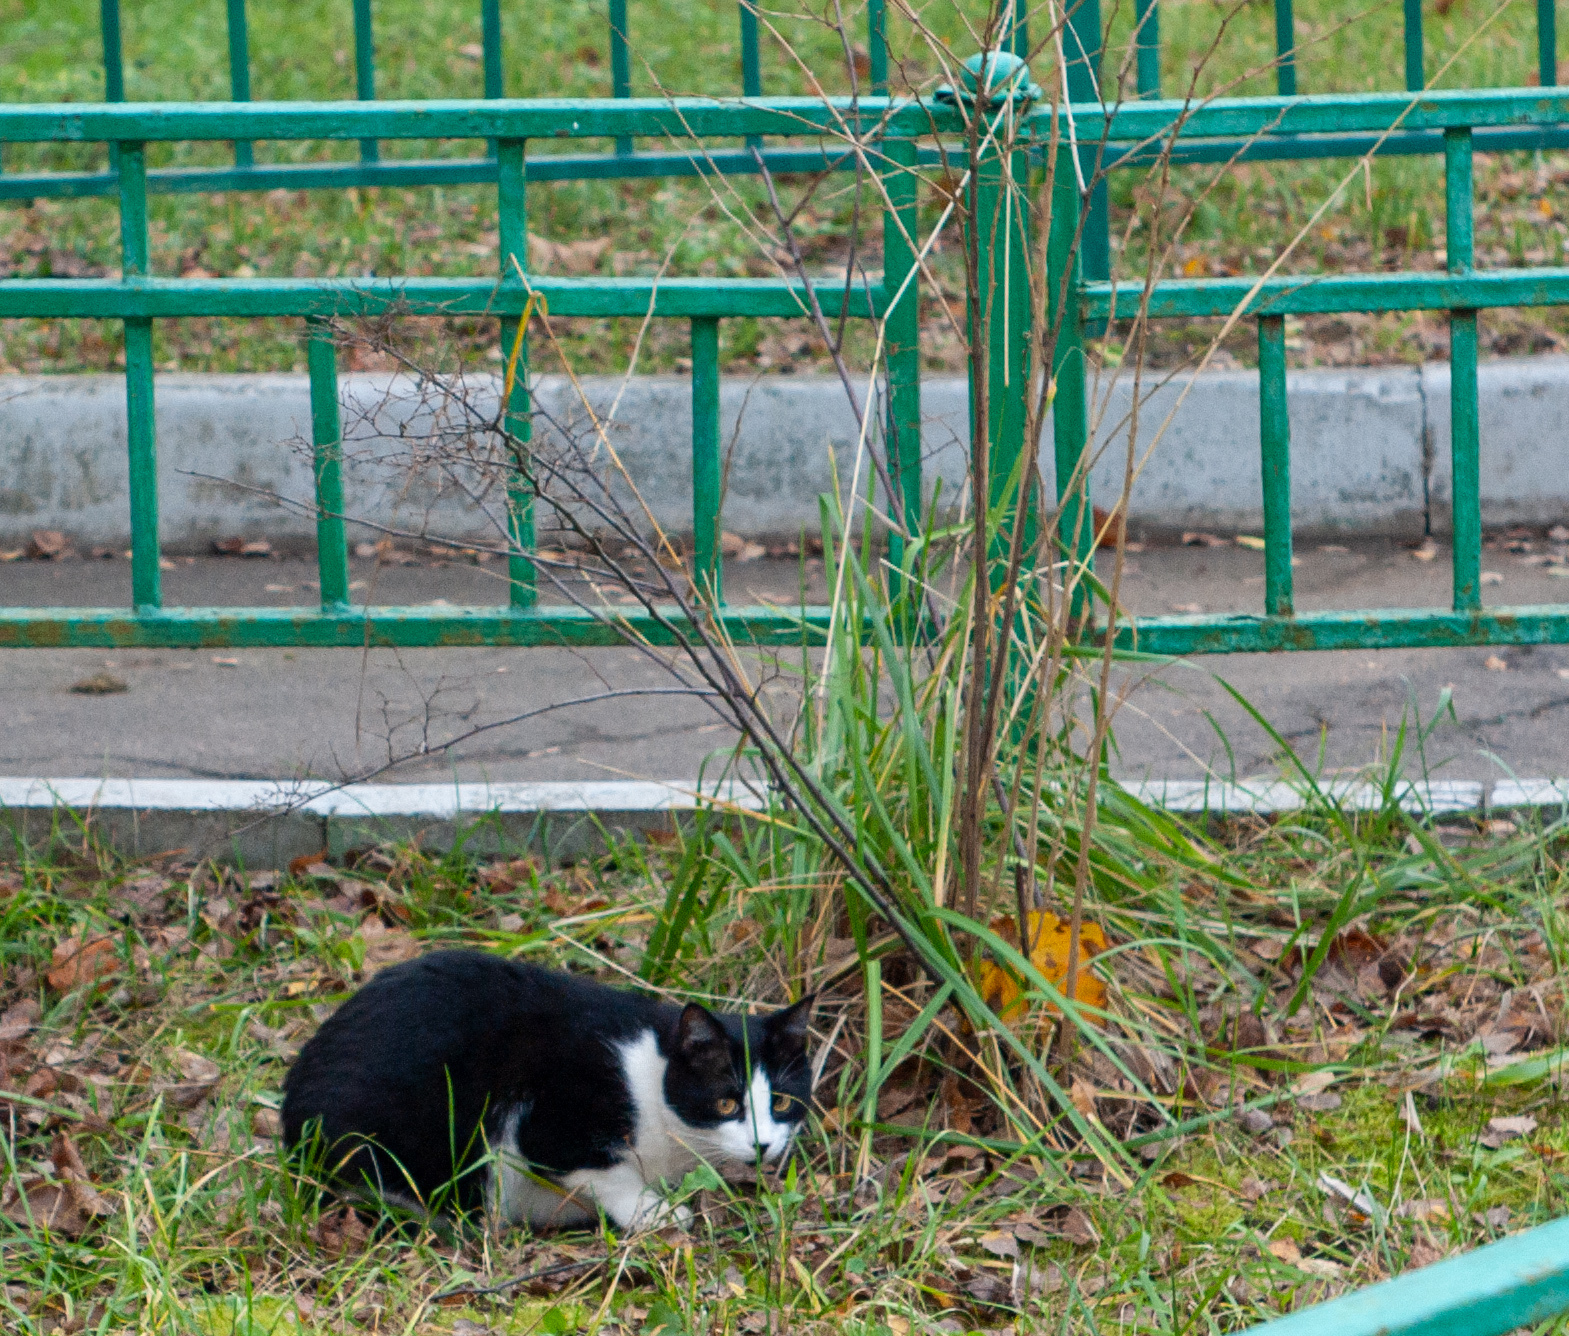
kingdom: Animalia
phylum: Chordata
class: Mammalia
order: Carnivora
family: Felidae
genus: Felis
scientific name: Felis catus
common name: Domestic cat
